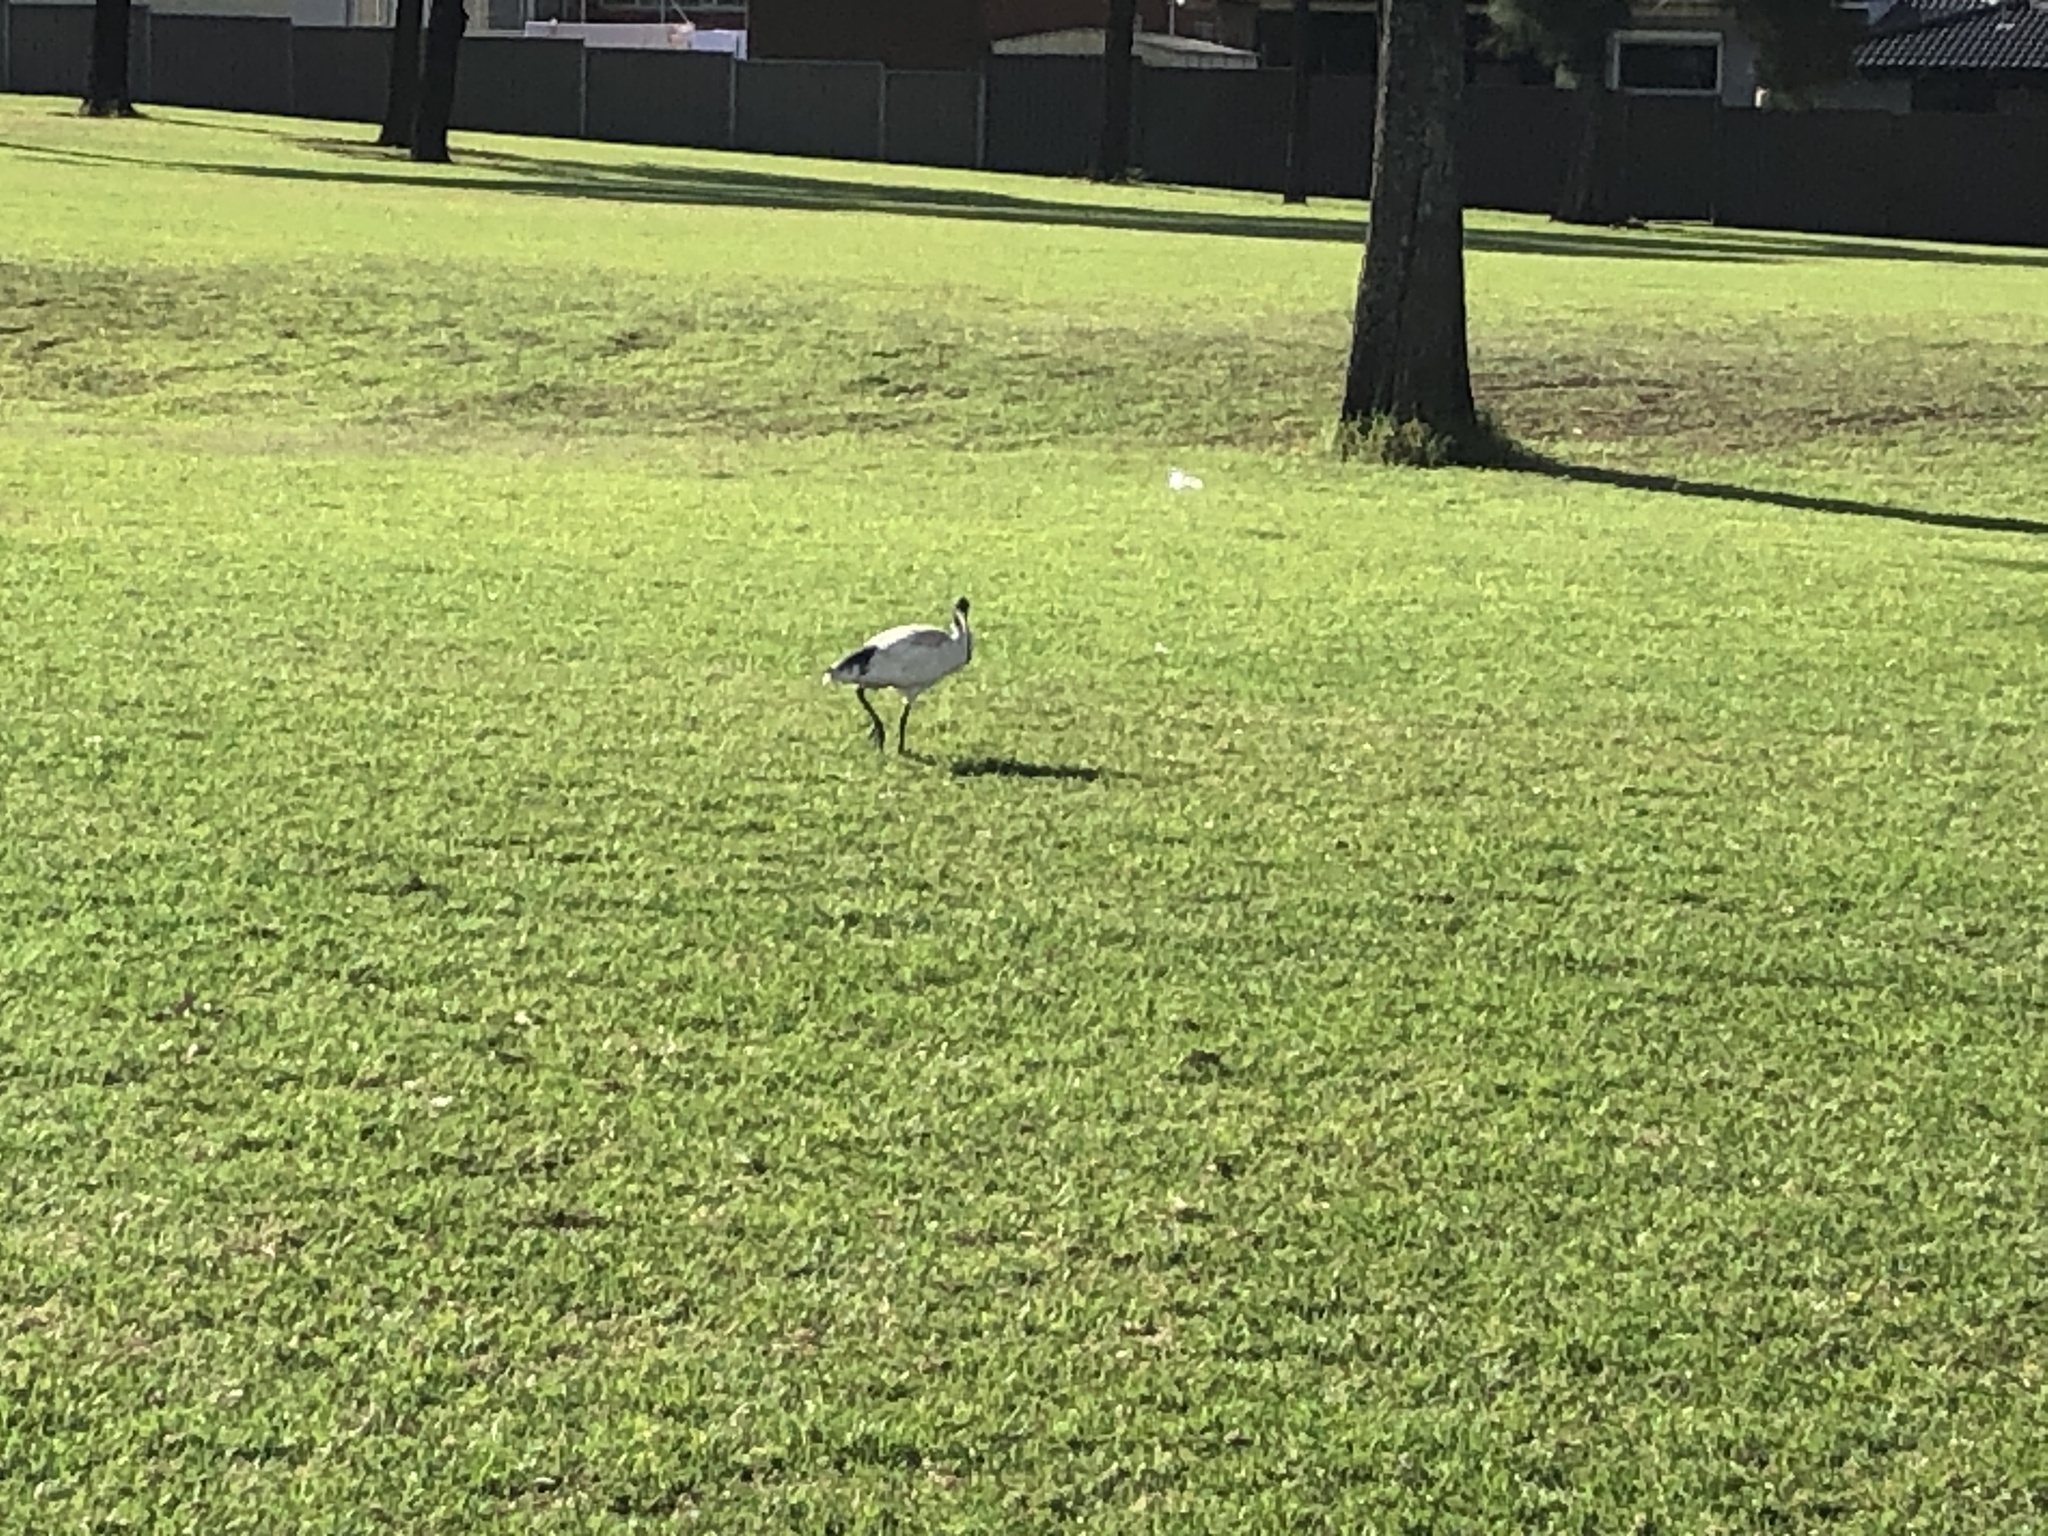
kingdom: Animalia
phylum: Chordata
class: Aves
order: Pelecaniformes
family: Threskiornithidae
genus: Threskiornis
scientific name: Threskiornis molucca
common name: Australian white ibis
